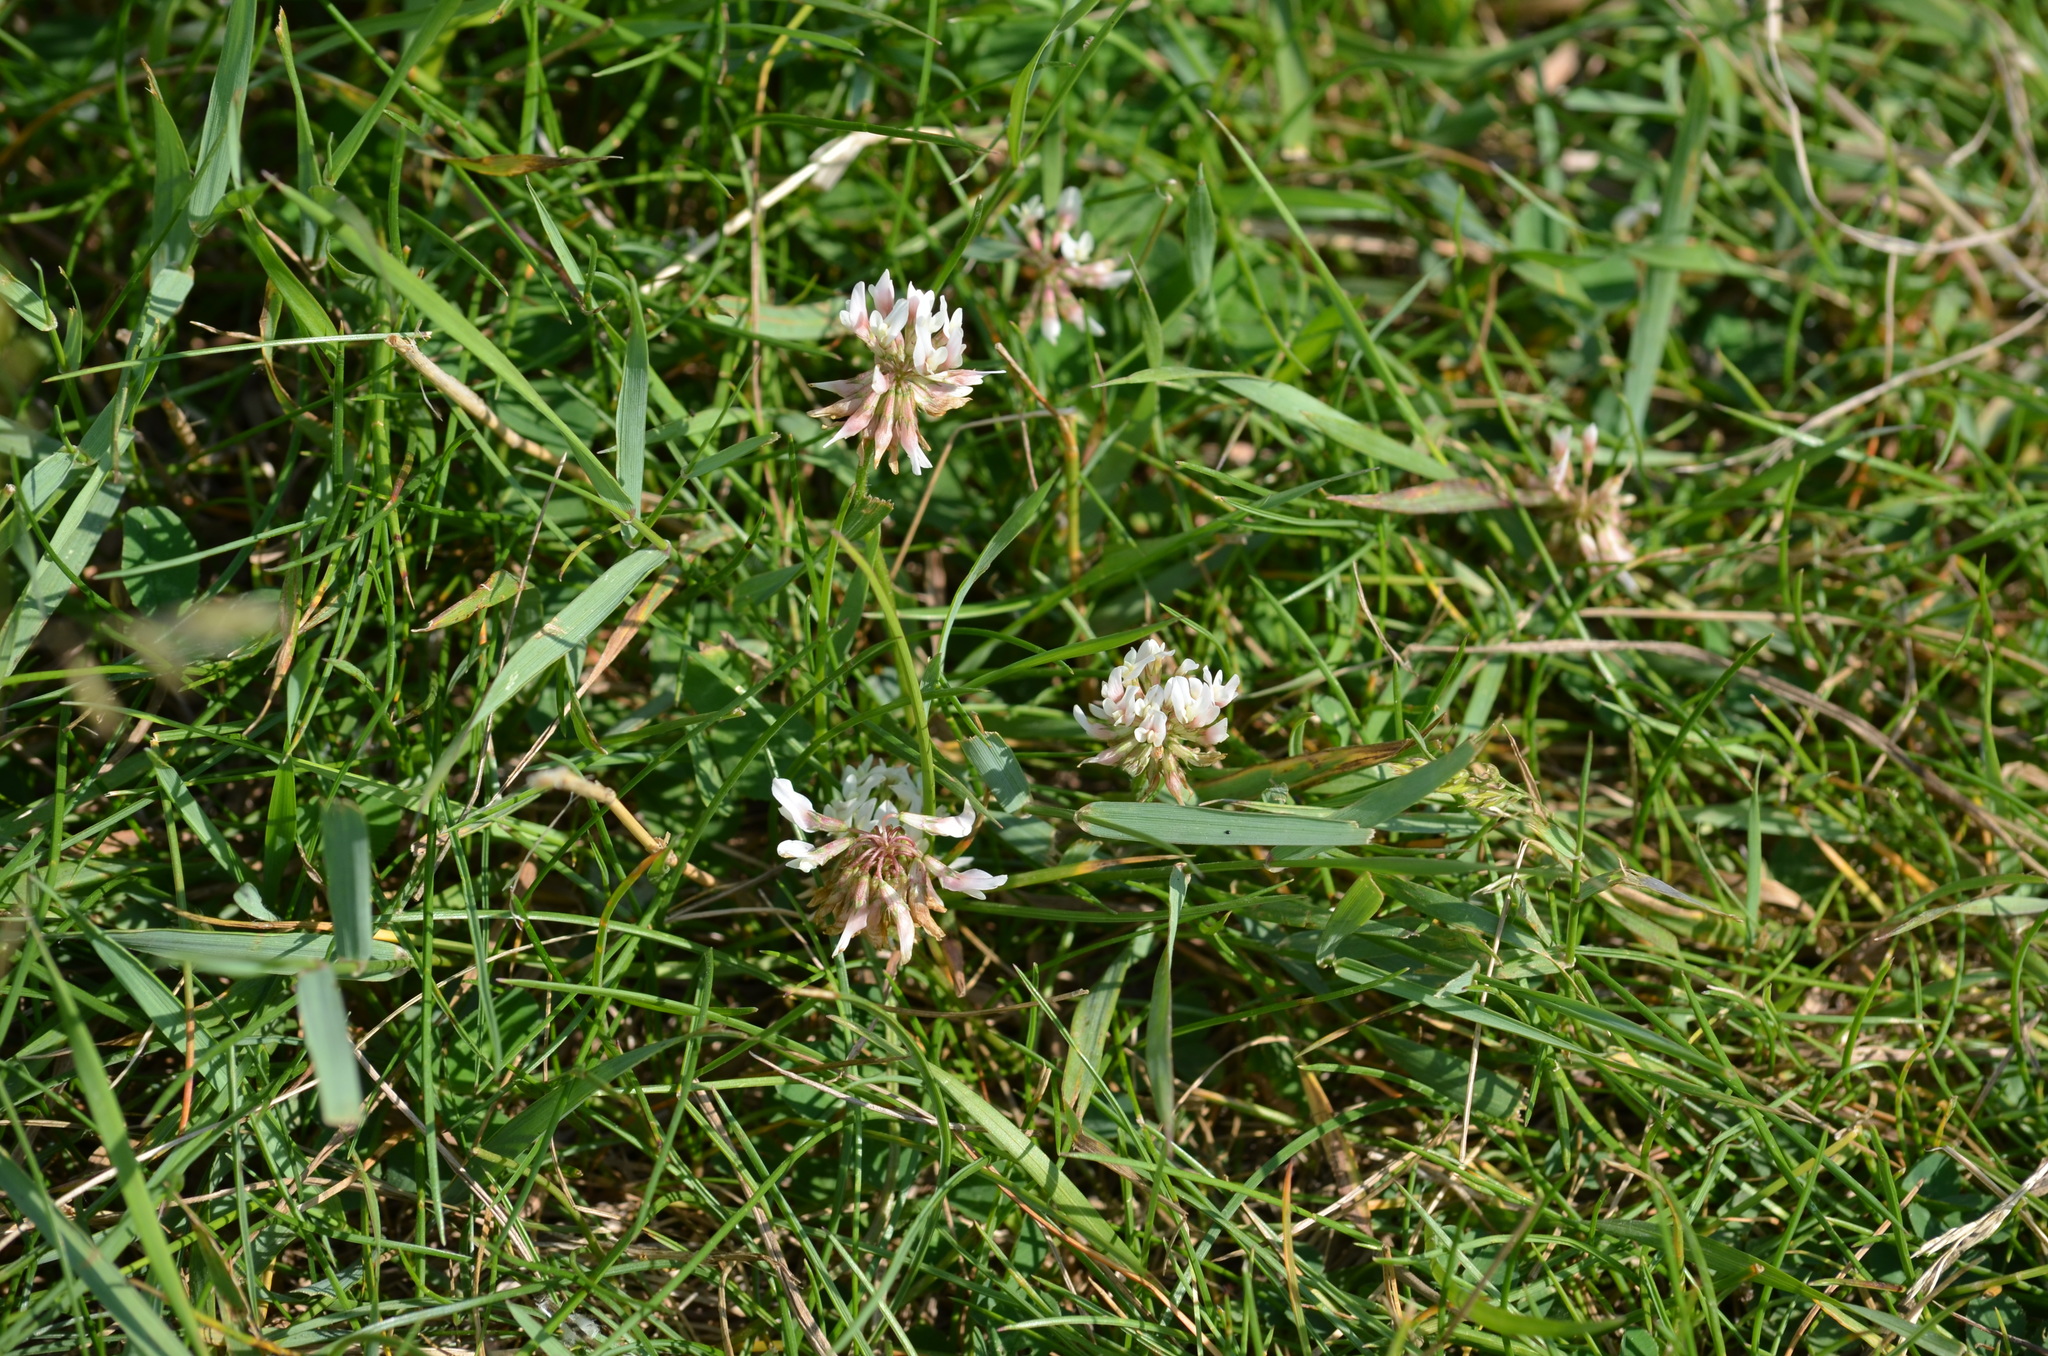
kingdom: Plantae
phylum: Tracheophyta
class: Magnoliopsida
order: Fabales
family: Fabaceae
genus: Trifolium
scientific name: Trifolium hybridum
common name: Alsike clover
